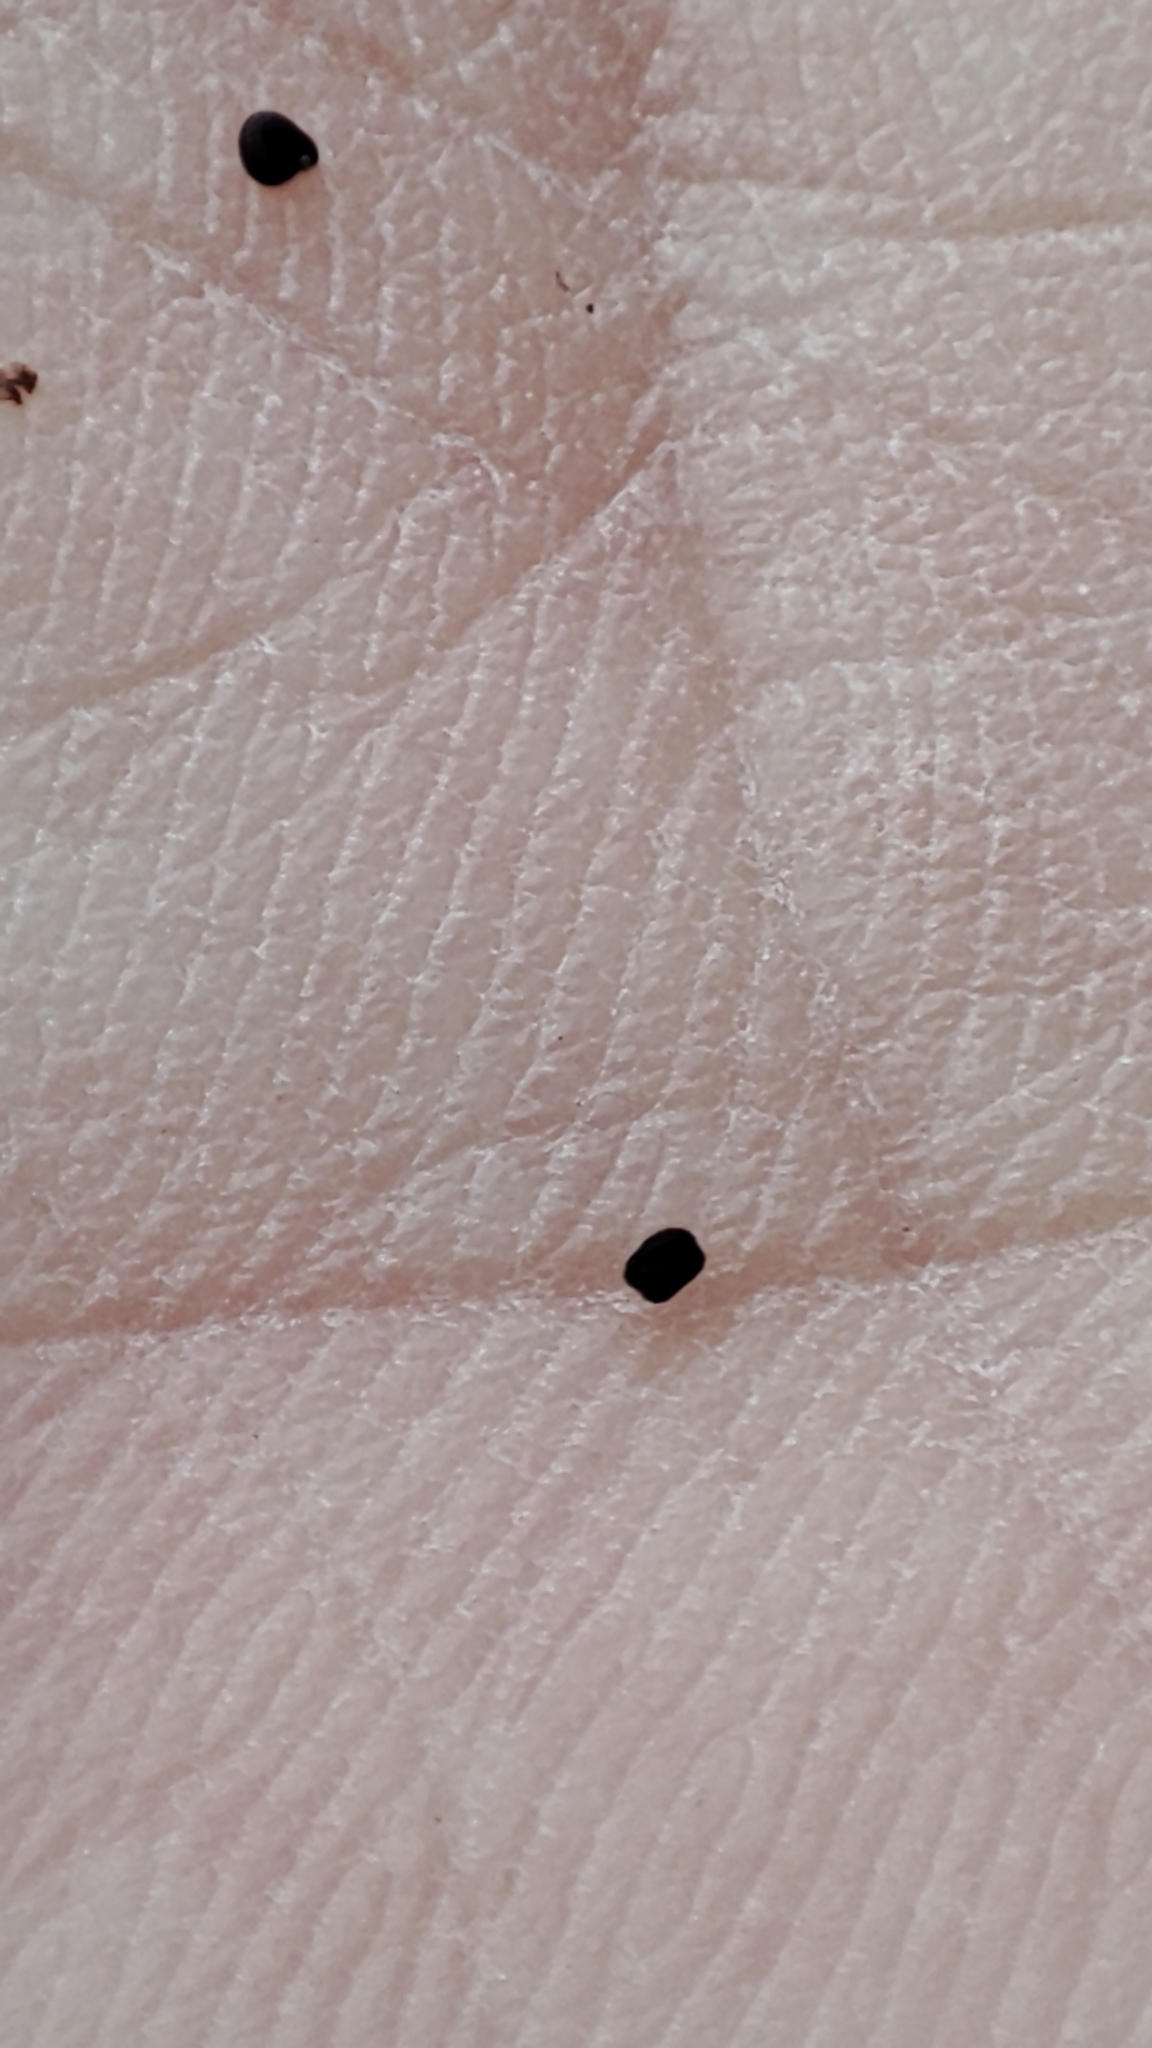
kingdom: Plantae
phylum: Tracheophyta
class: Magnoliopsida
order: Caryophyllales
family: Portulacaceae
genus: Portulaca
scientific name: Portulaca oleracea
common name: Common purslane
